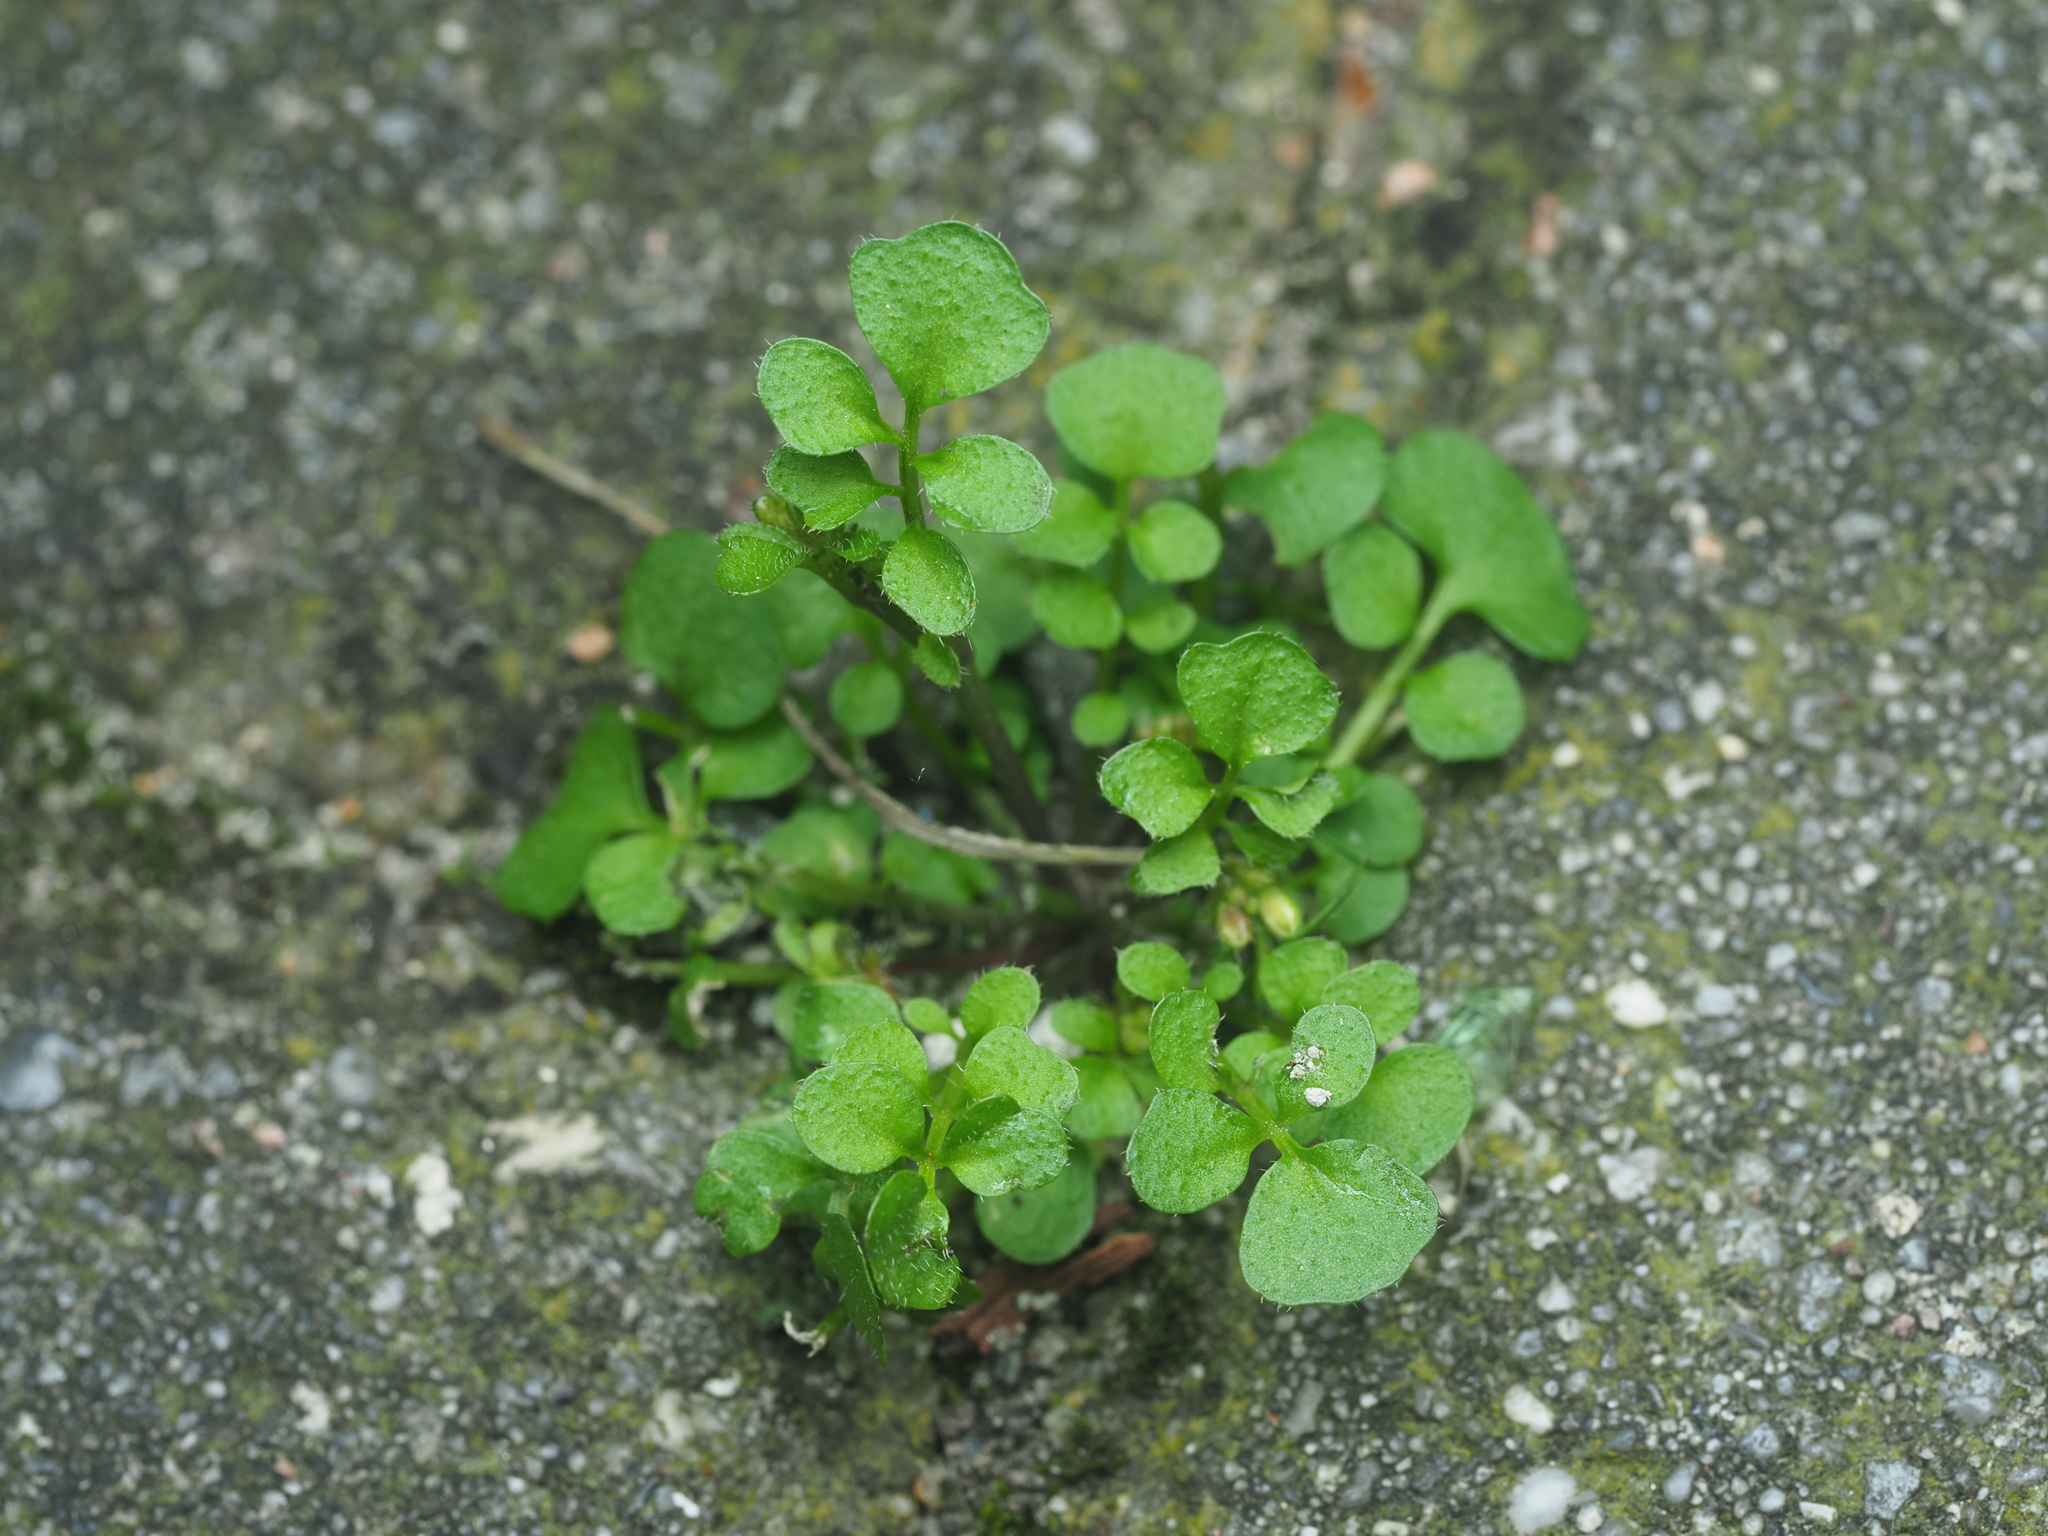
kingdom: Plantae
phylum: Tracheophyta
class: Magnoliopsida
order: Brassicales
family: Brassicaceae
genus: Cardamine
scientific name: Cardamine hirsuta
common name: Hairy bittercress
